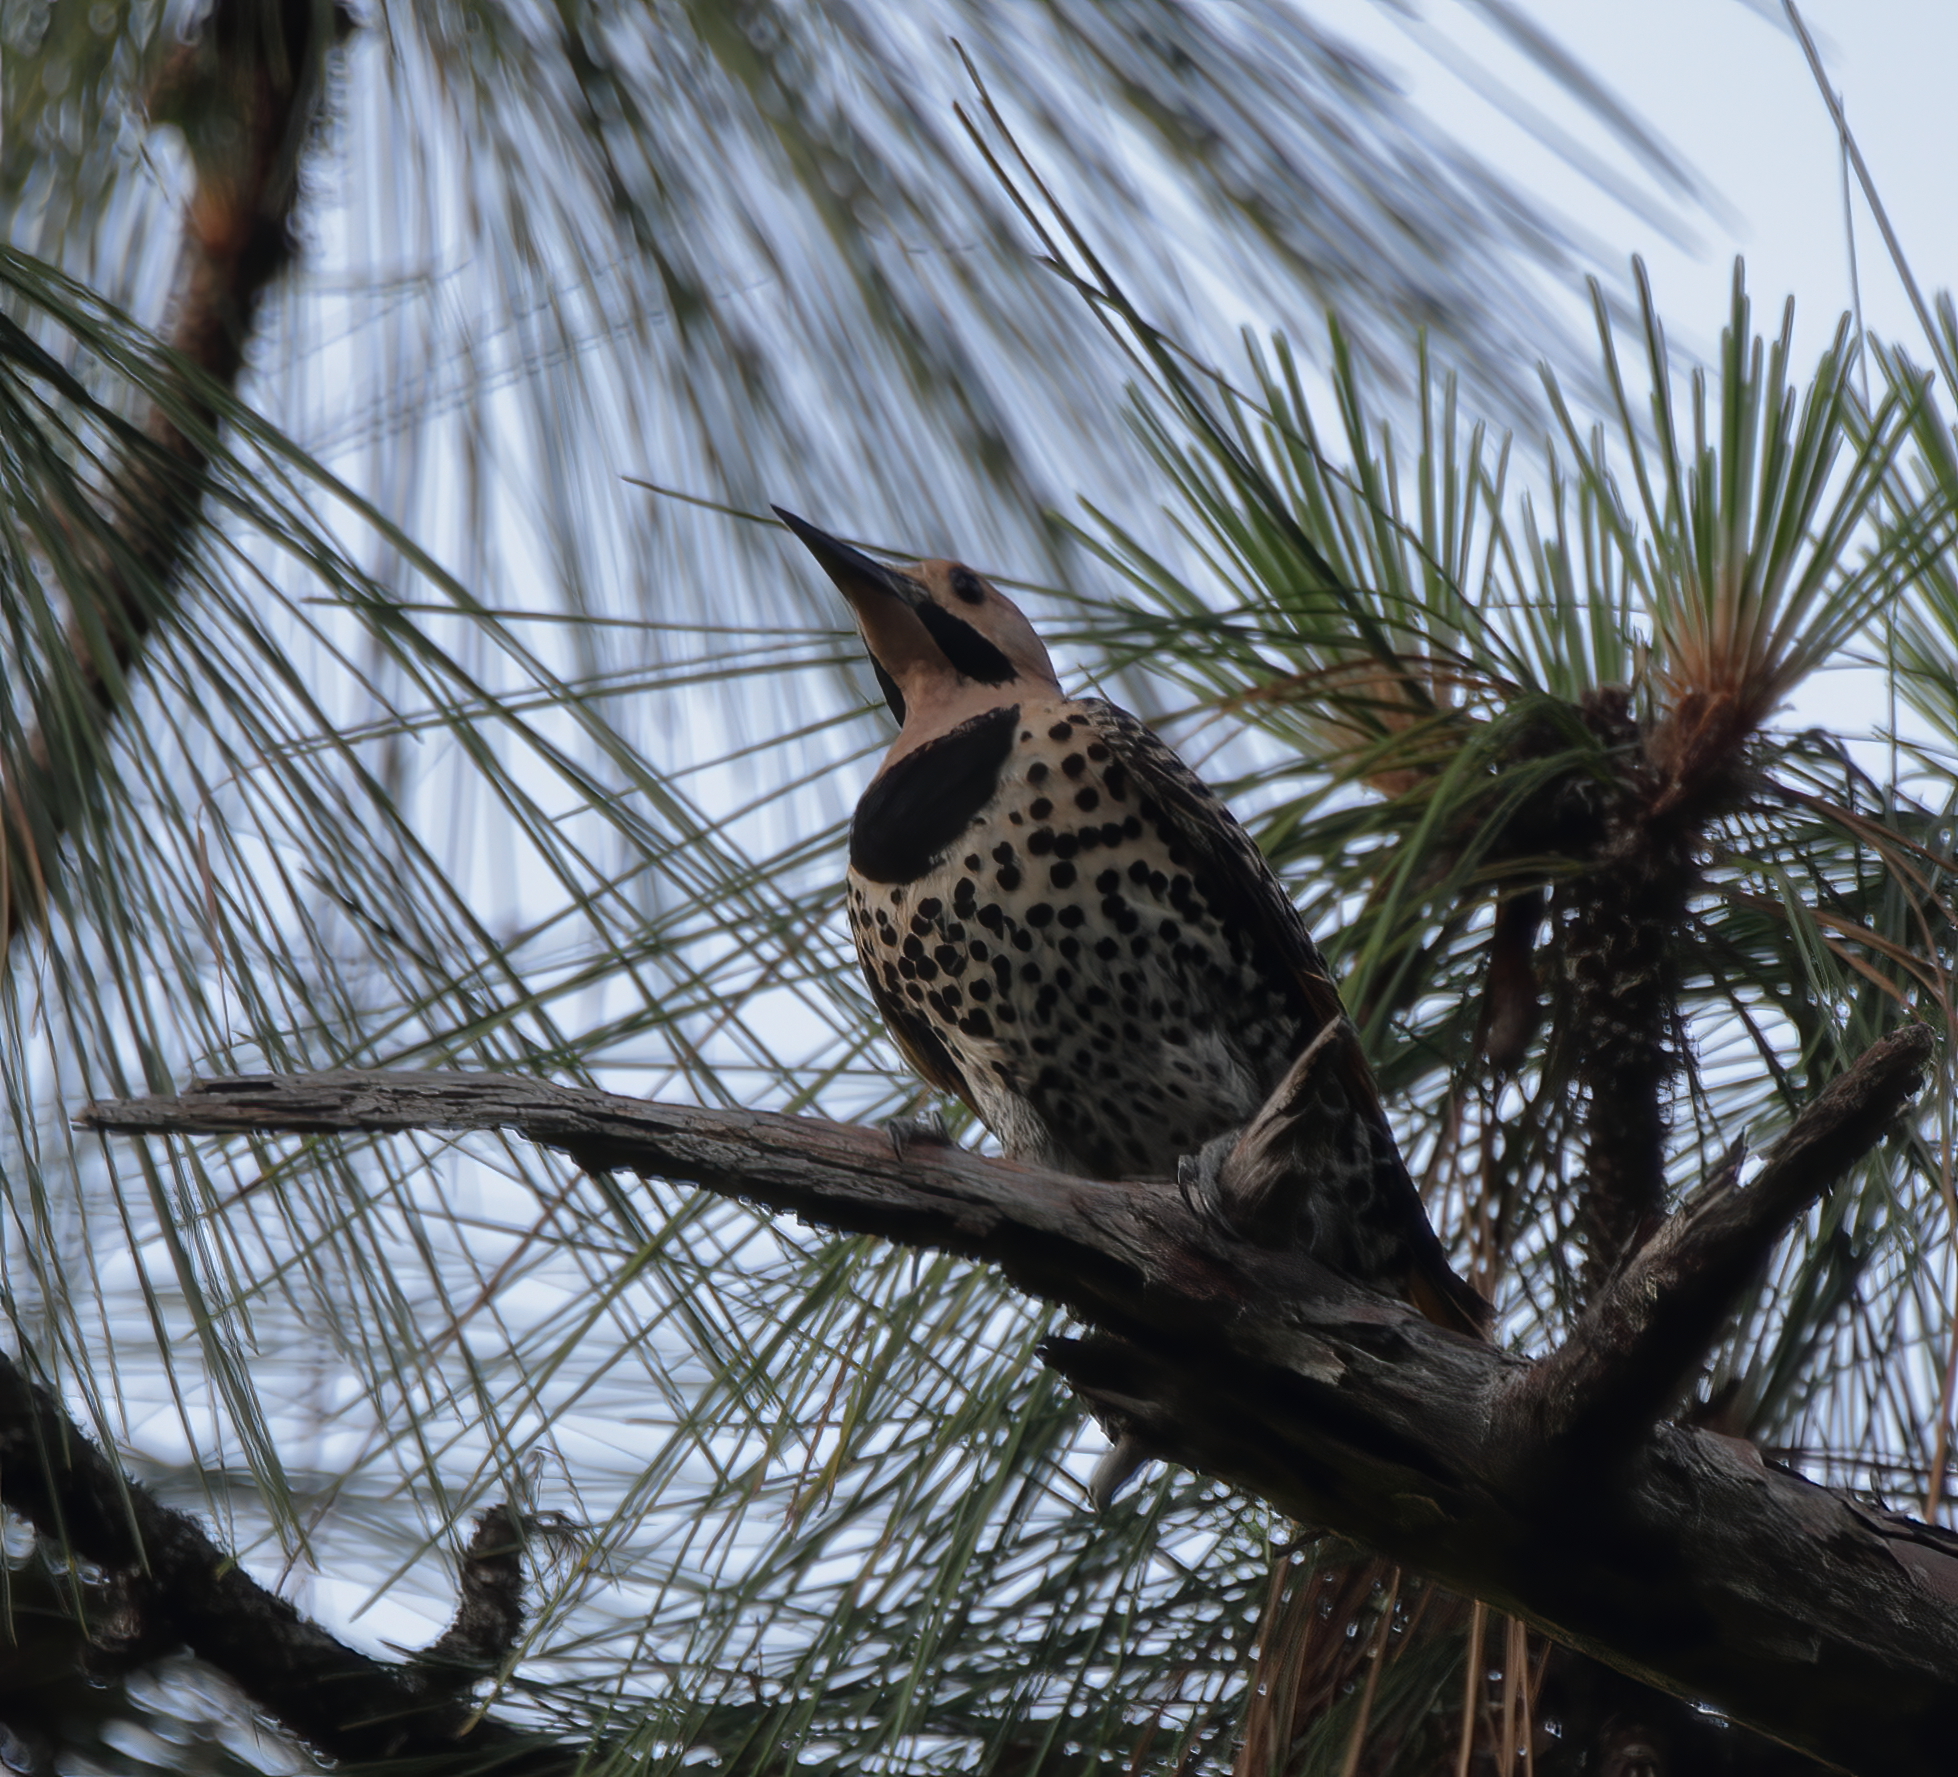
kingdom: Animalia
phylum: Chordata
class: Aves
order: Piciformes
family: Picidae
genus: Colaptes
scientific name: Colaptes auratus
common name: Northern flicker
